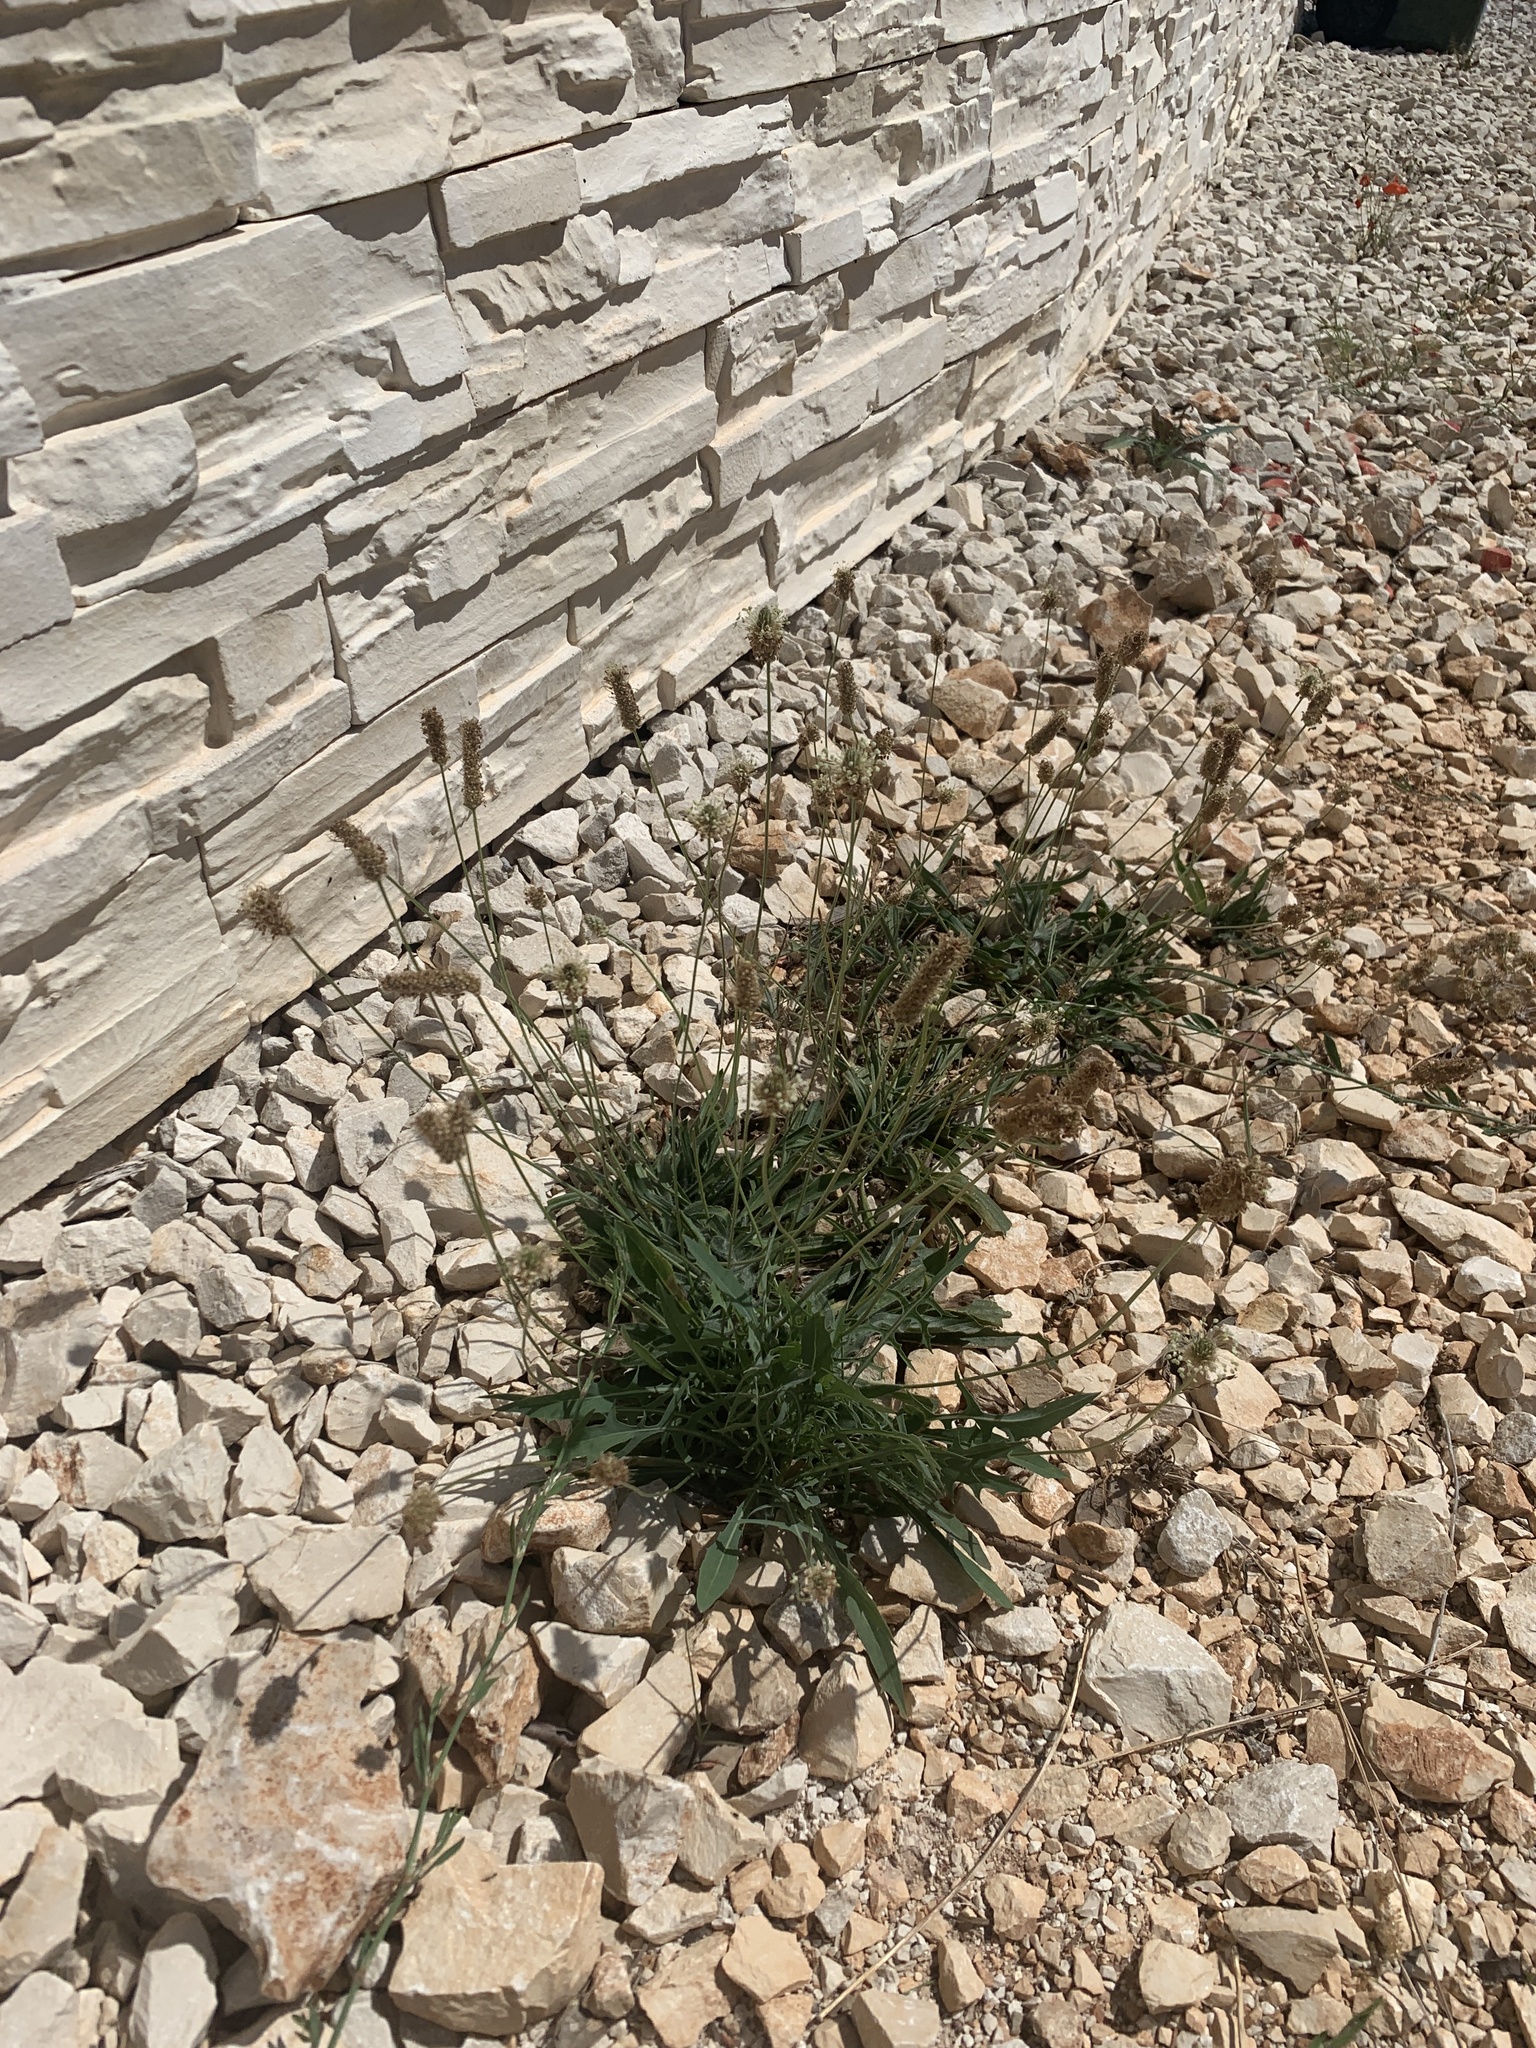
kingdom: Plantae
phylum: Tracheophyta
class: Magnoliopsida
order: Lamiales
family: Plantaginaceae
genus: Plantago
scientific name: Plantago lanceolata
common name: Ribwort plantain
